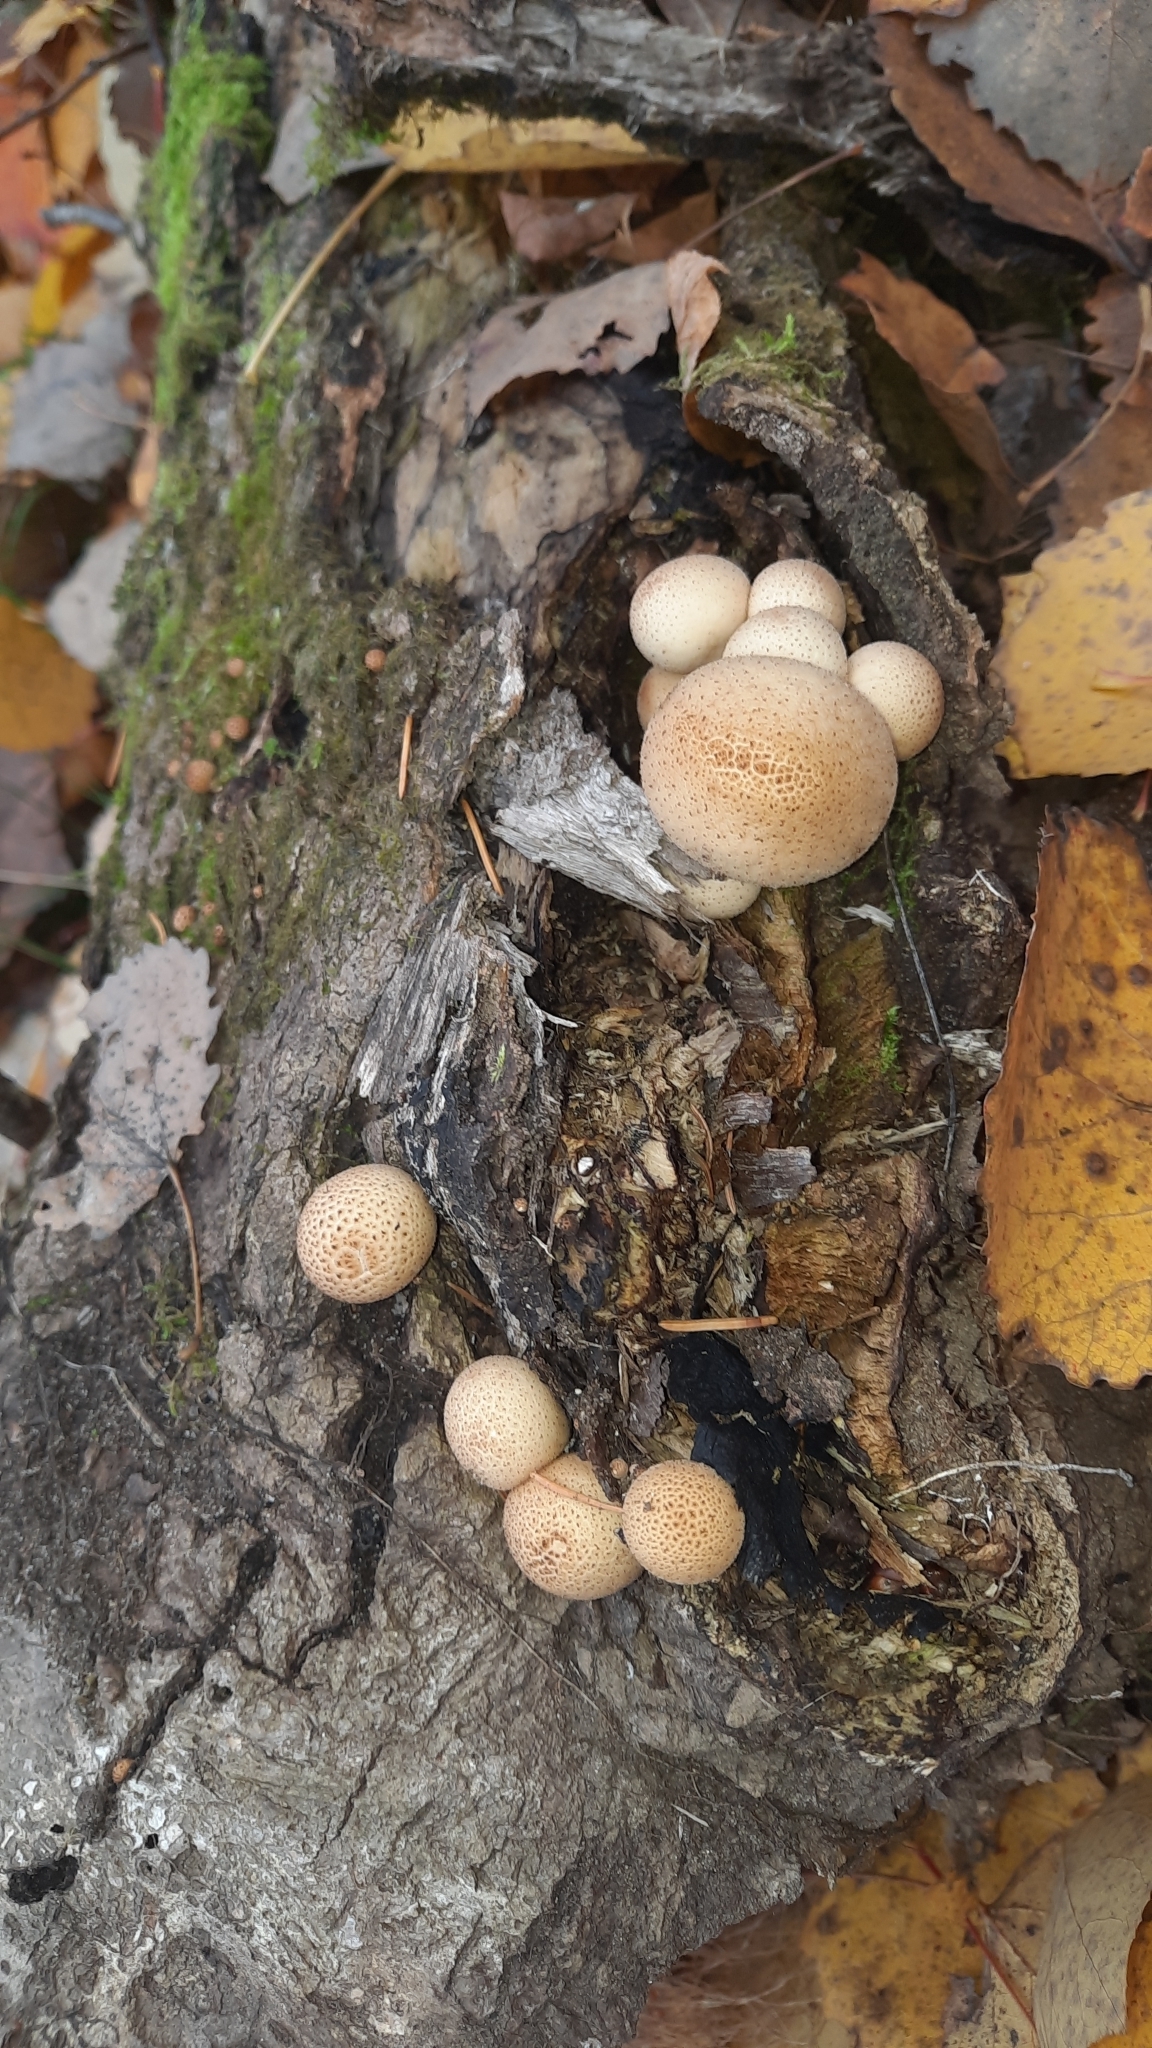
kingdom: Fungi
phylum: Basidiomycota
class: Agaricomycetes
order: Agaricales
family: Lycoperdaceae
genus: Apioperdon
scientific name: Apioperdon pyriforme
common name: Pear-shaped puffball
